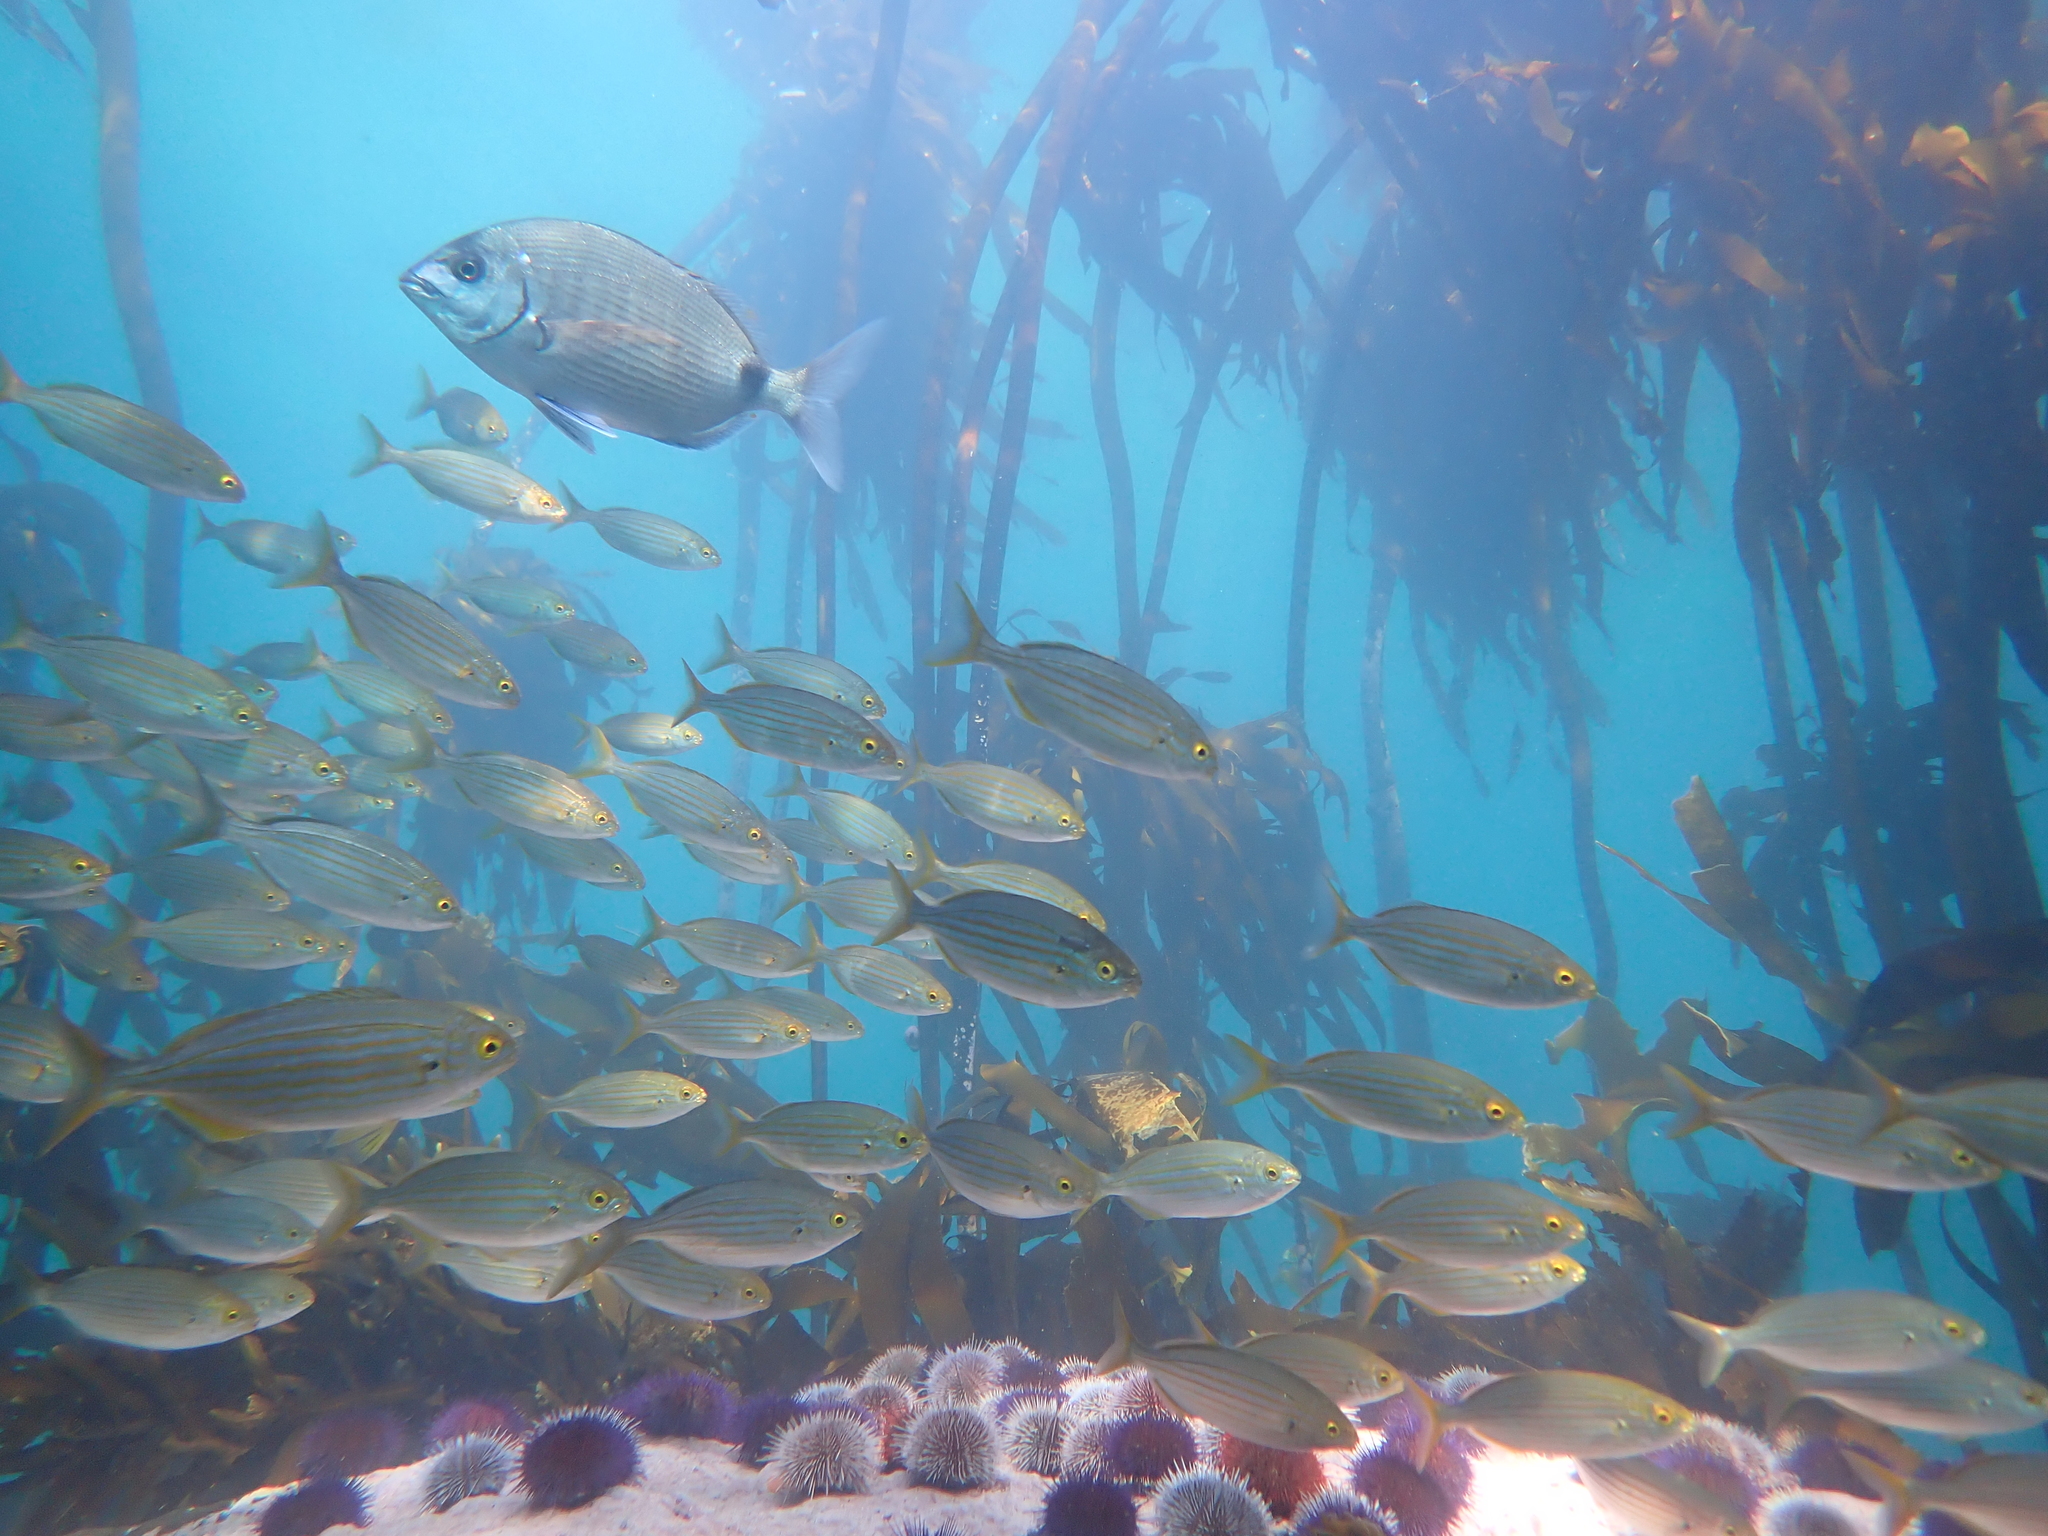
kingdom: Animalia
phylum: Chordata
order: Perciformes
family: Sparidae
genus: Diplodus
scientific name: Diplodus capensis
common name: Blacktail
